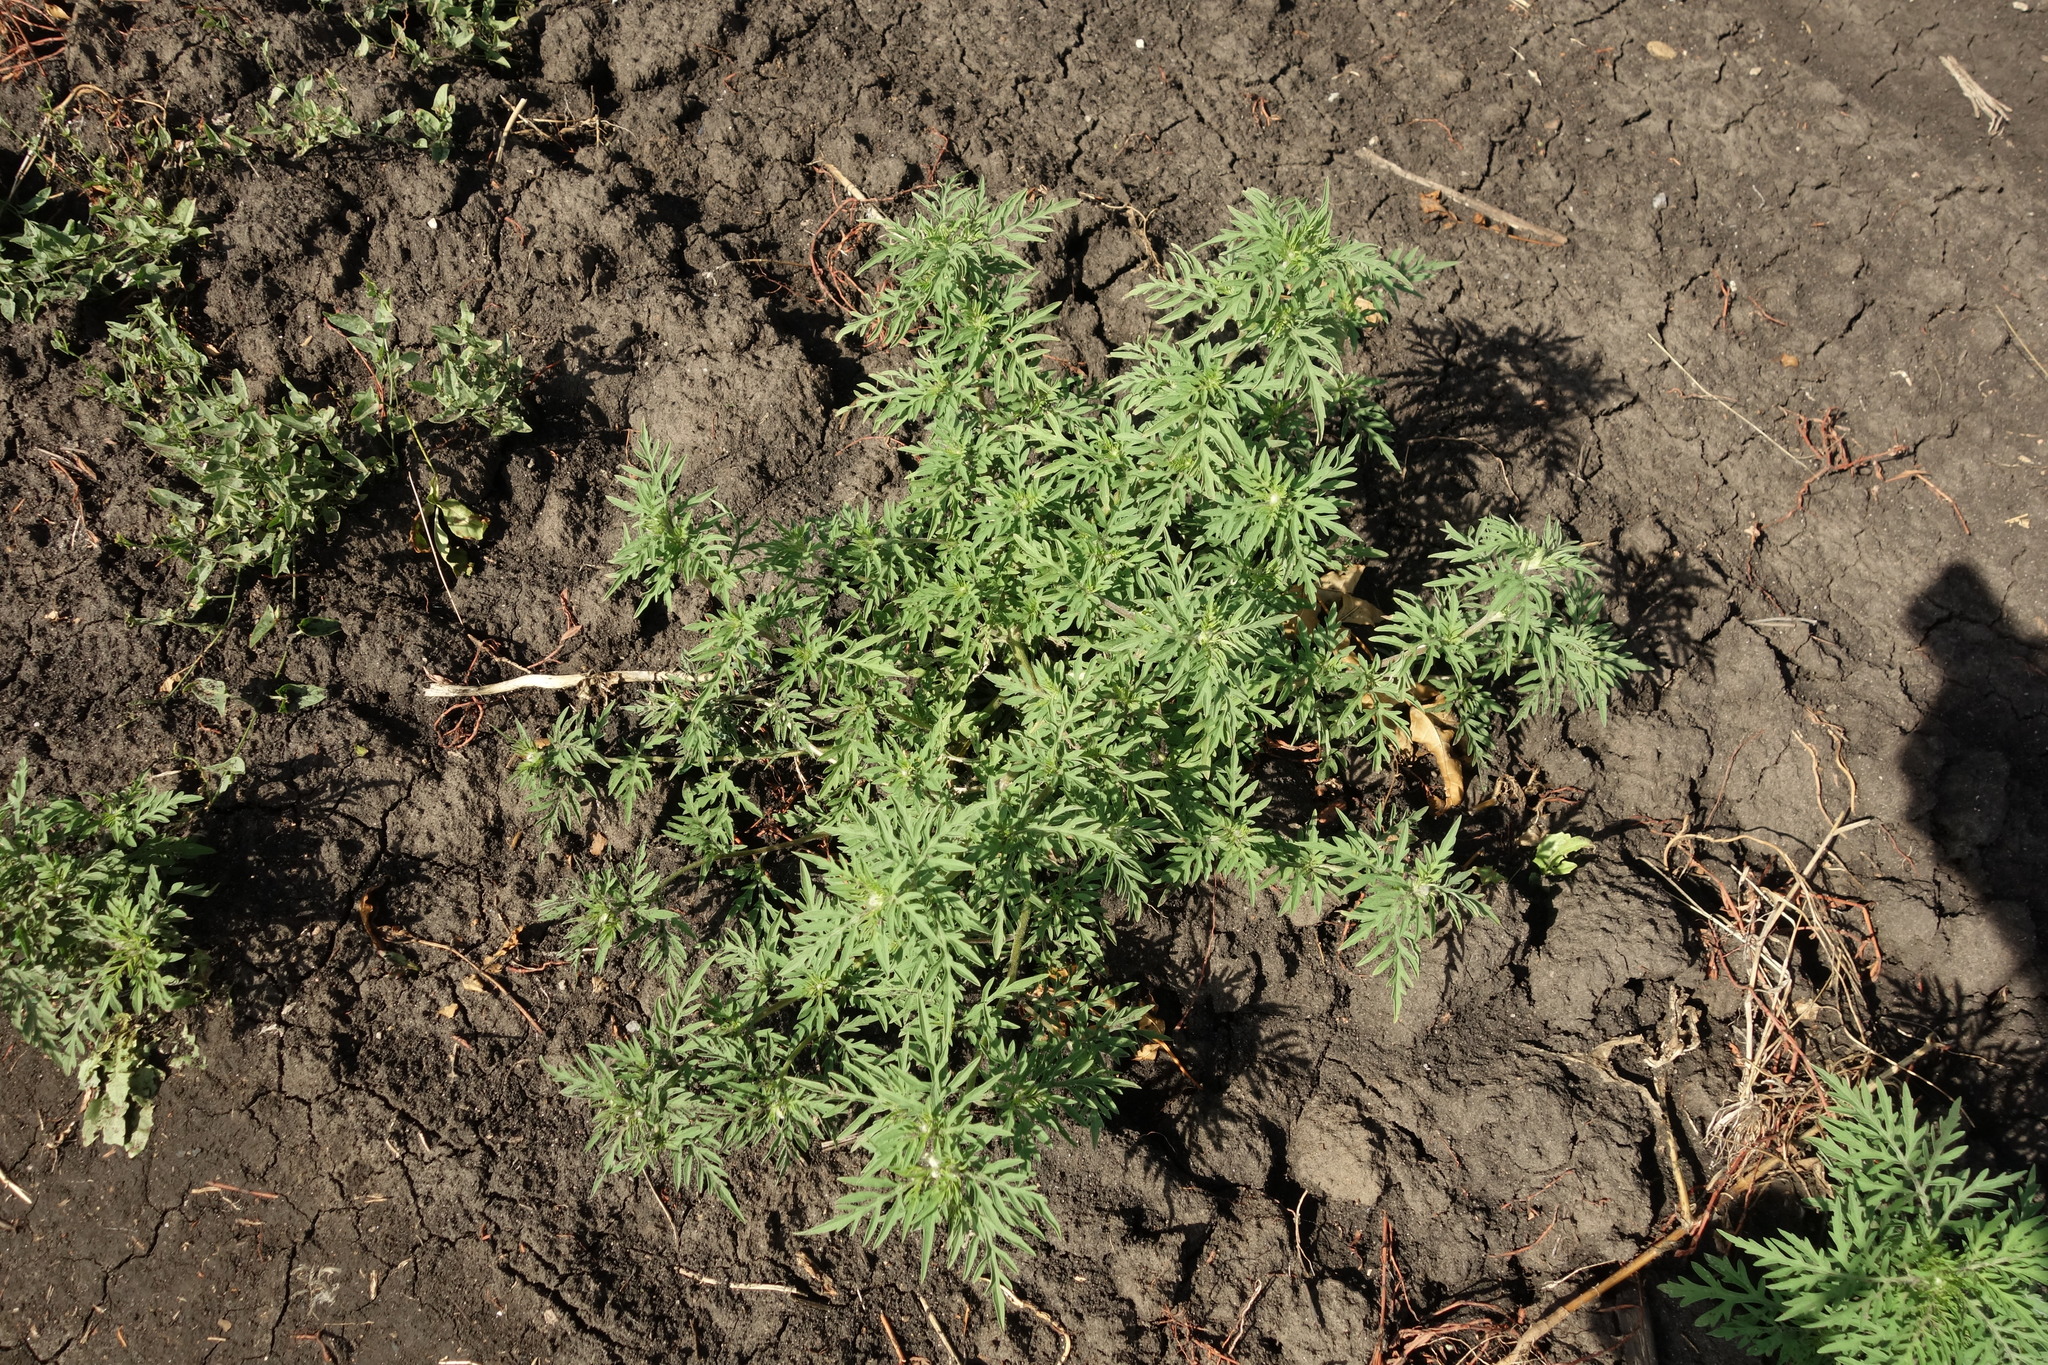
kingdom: Plantae
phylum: Tracheophyta
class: Magnoliopsida
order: Asterales
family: Asteraceae
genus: Ambrosia
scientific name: Ambrosia artemisiifolia
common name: Annual ragweed
